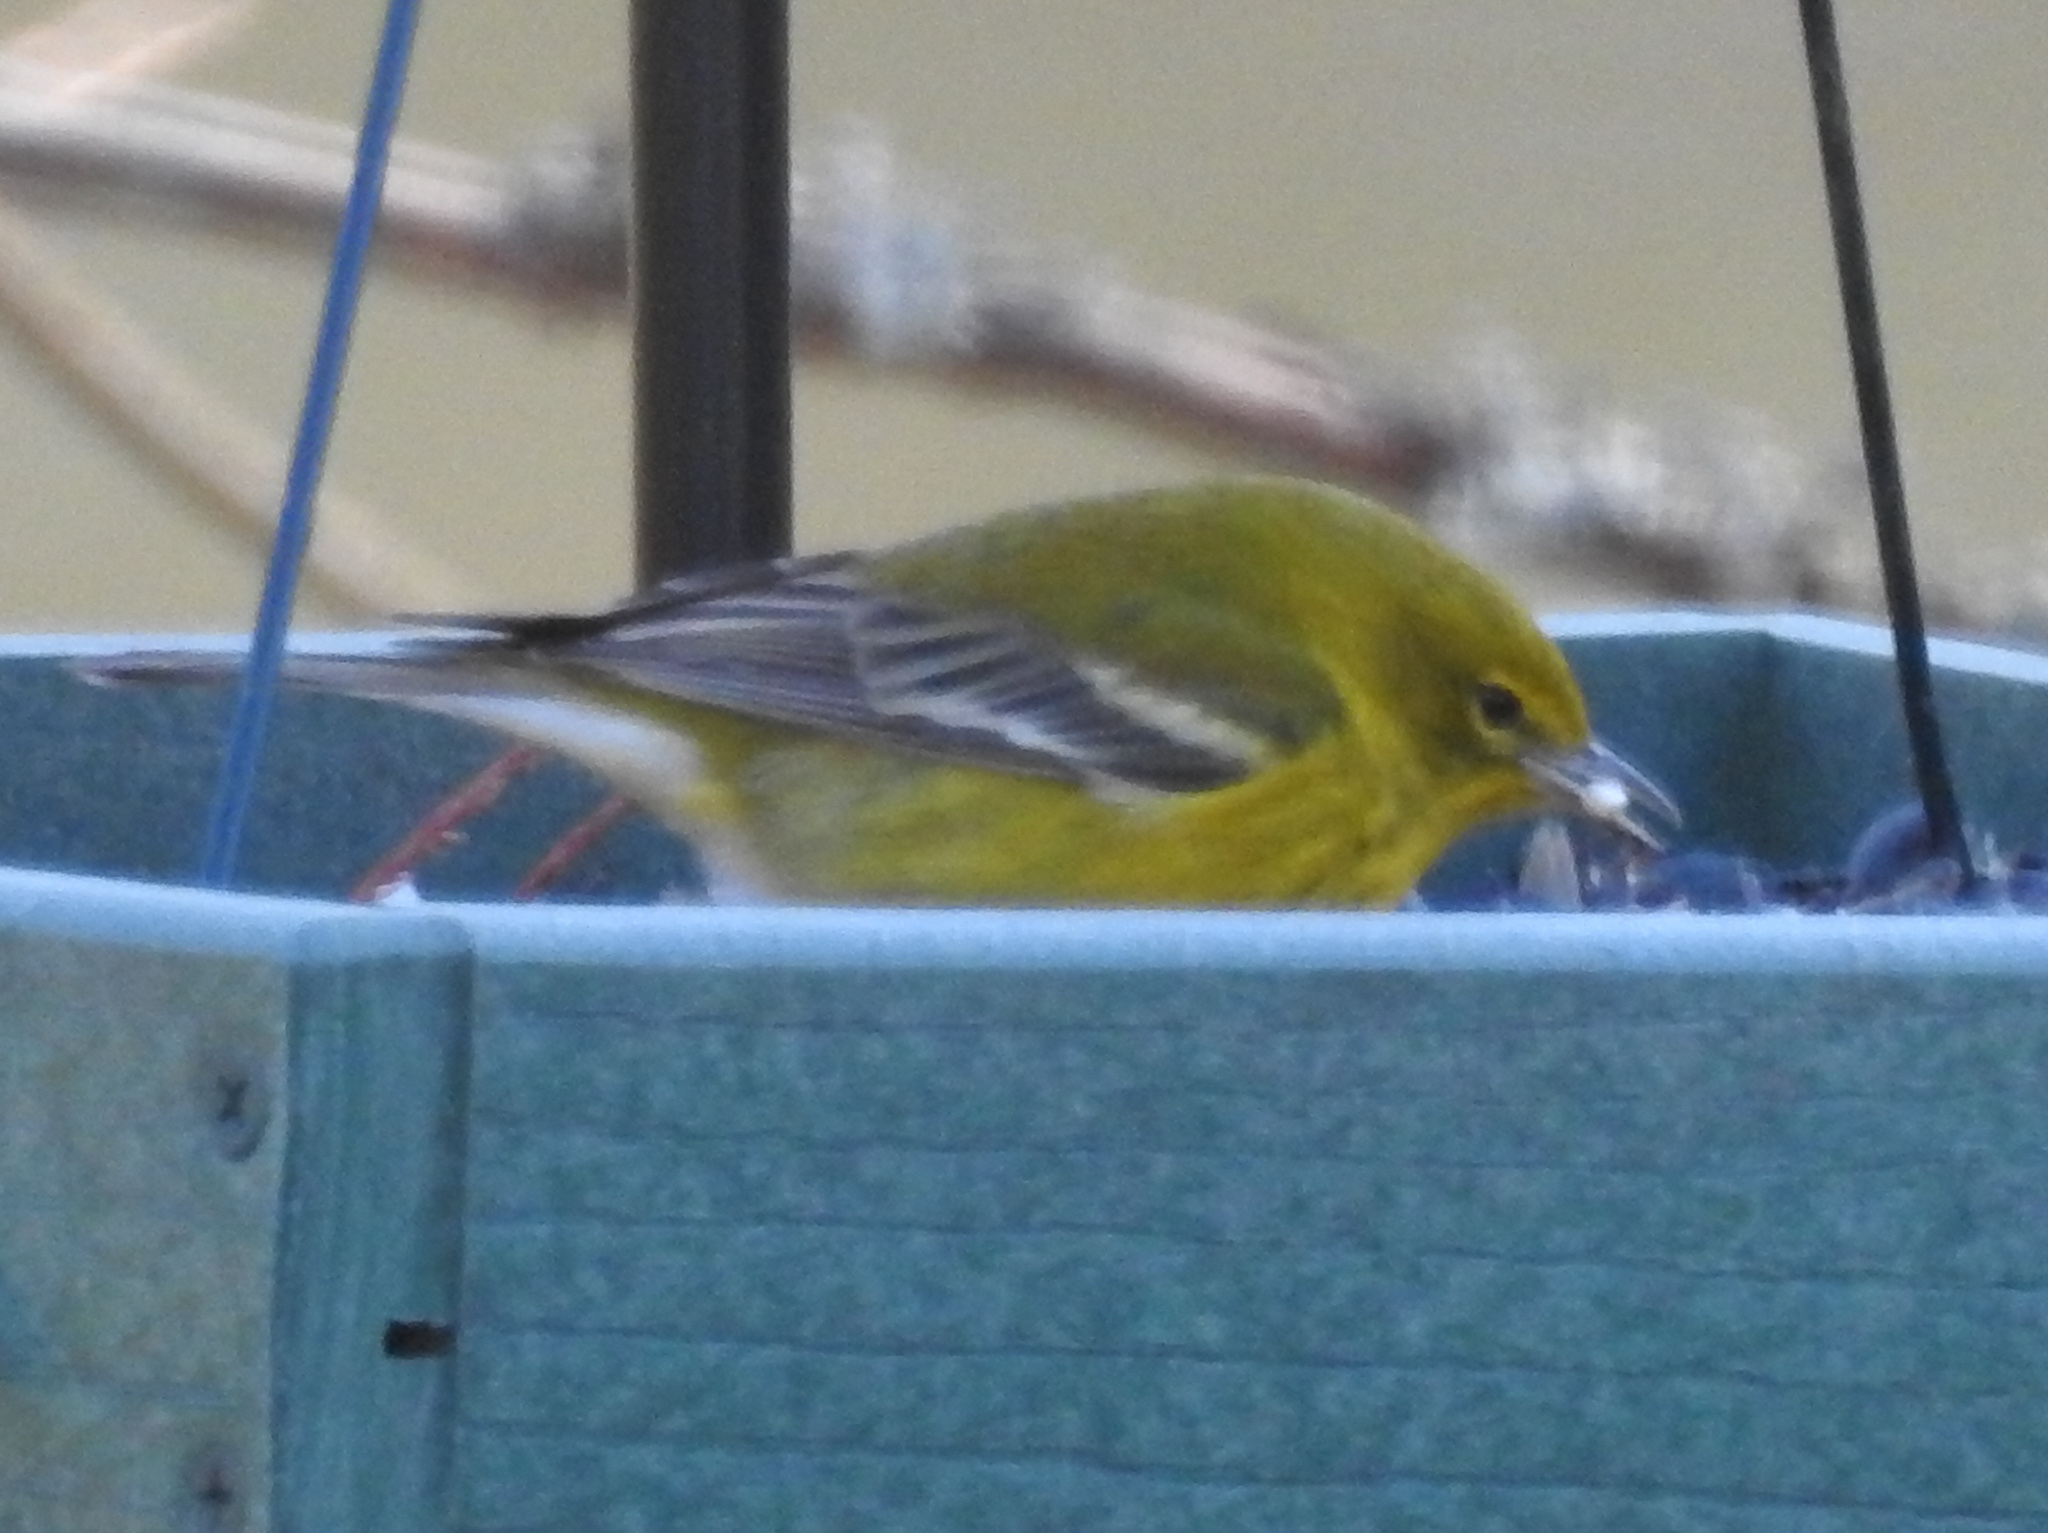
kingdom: Animalia
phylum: Chordata
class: Aves
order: Passeriformes
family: Parulidae
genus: Setophaga
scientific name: Setophaga pinus
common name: Pine warbler
